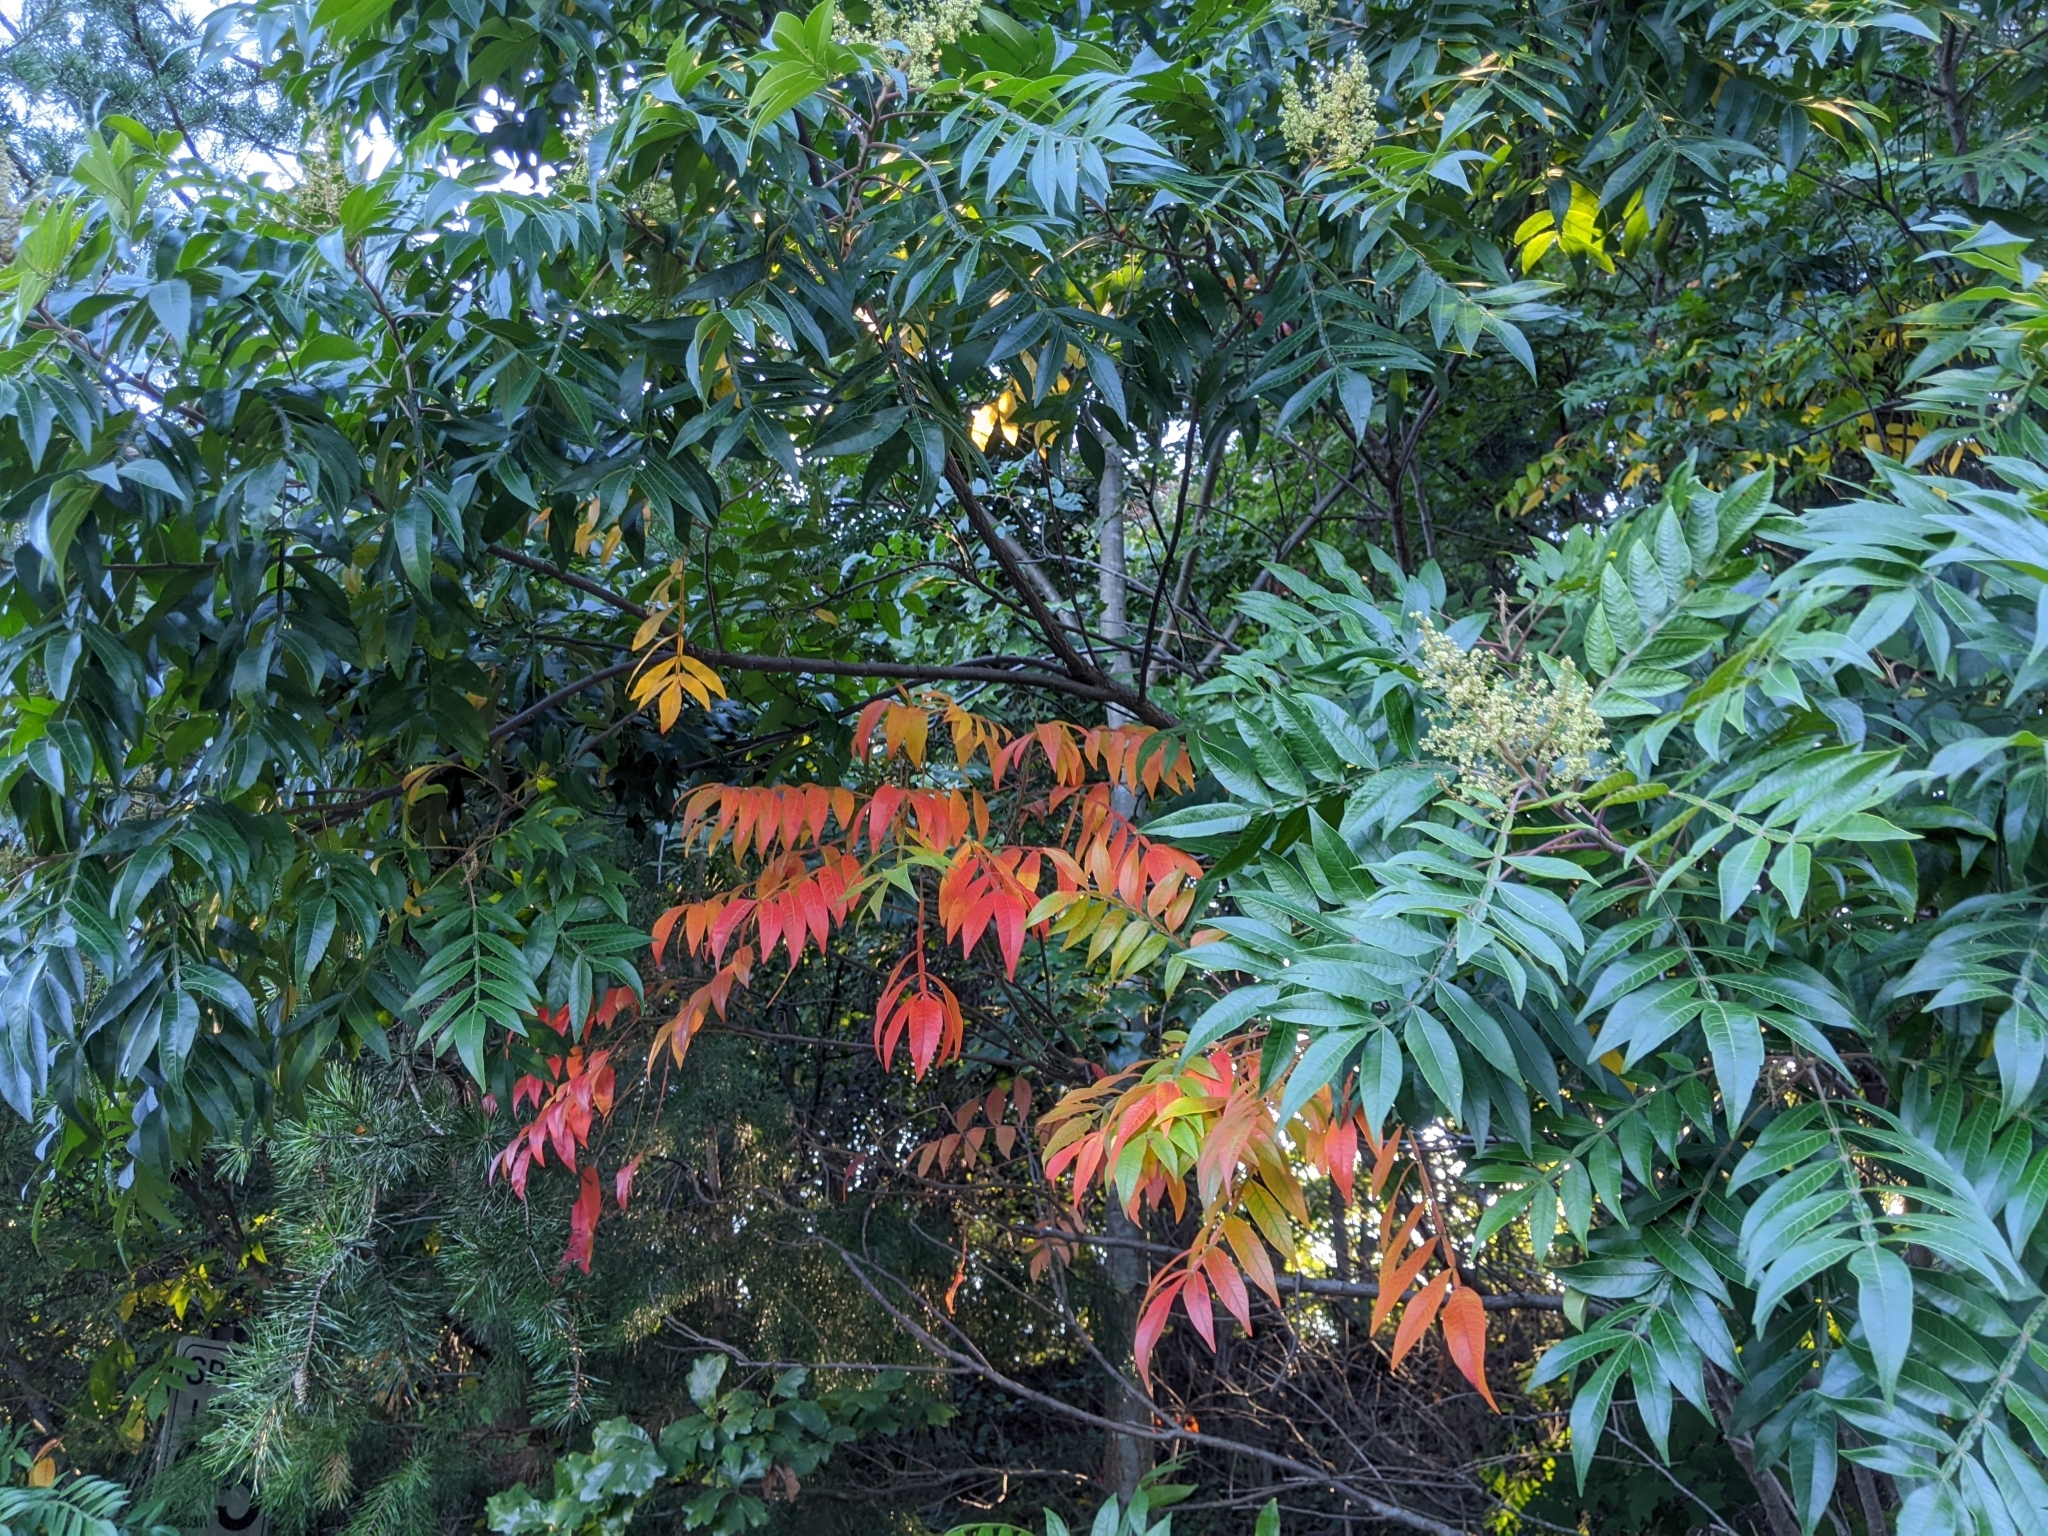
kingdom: Plantae
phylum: Tracheophyta
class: Magnoliopsida
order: Sapindales
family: Anacardiaceae
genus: Rhus
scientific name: Rhus copallina
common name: Shining sumac
